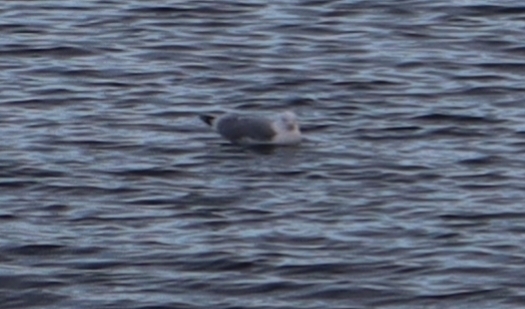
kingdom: Animalia
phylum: Chordata
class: Aves
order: Charadriiformes
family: Laridae
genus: Larus
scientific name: Larus argentatus
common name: Herring gull
